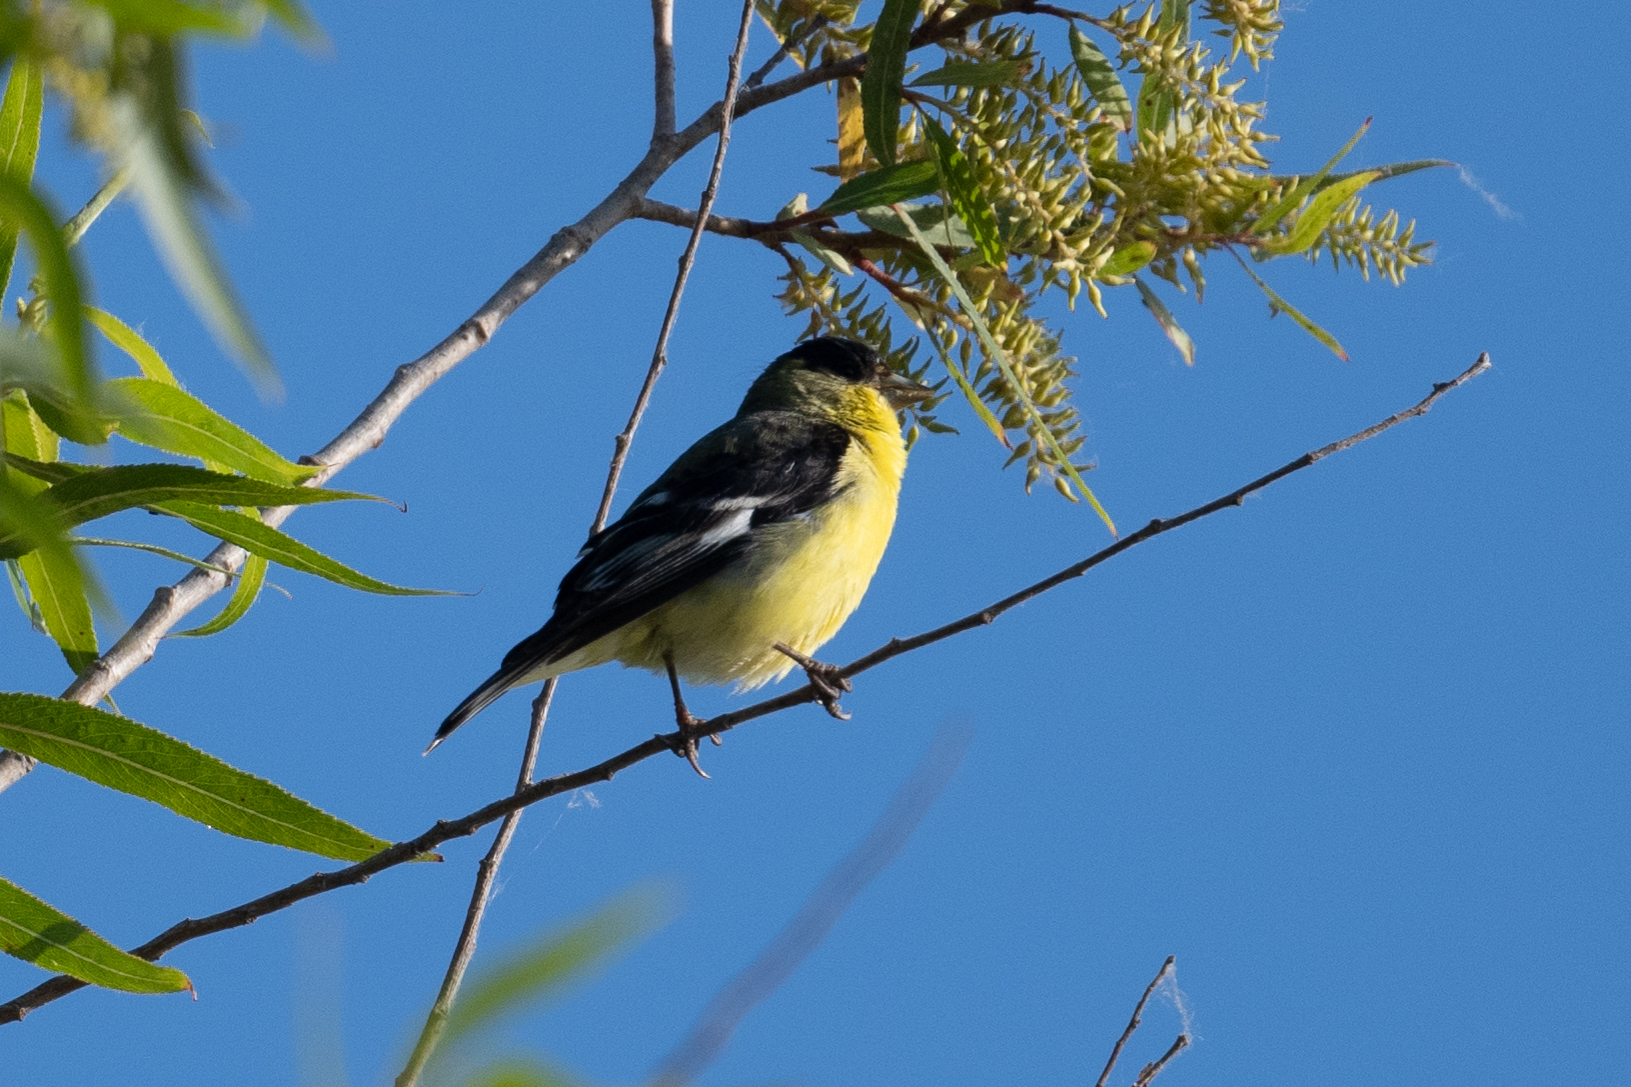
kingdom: Animalia
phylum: Chordata
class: Aves
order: Passeriformes
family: Fringillidae
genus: Spinus
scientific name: Spinus psaltria
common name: Lesser goldfinch
